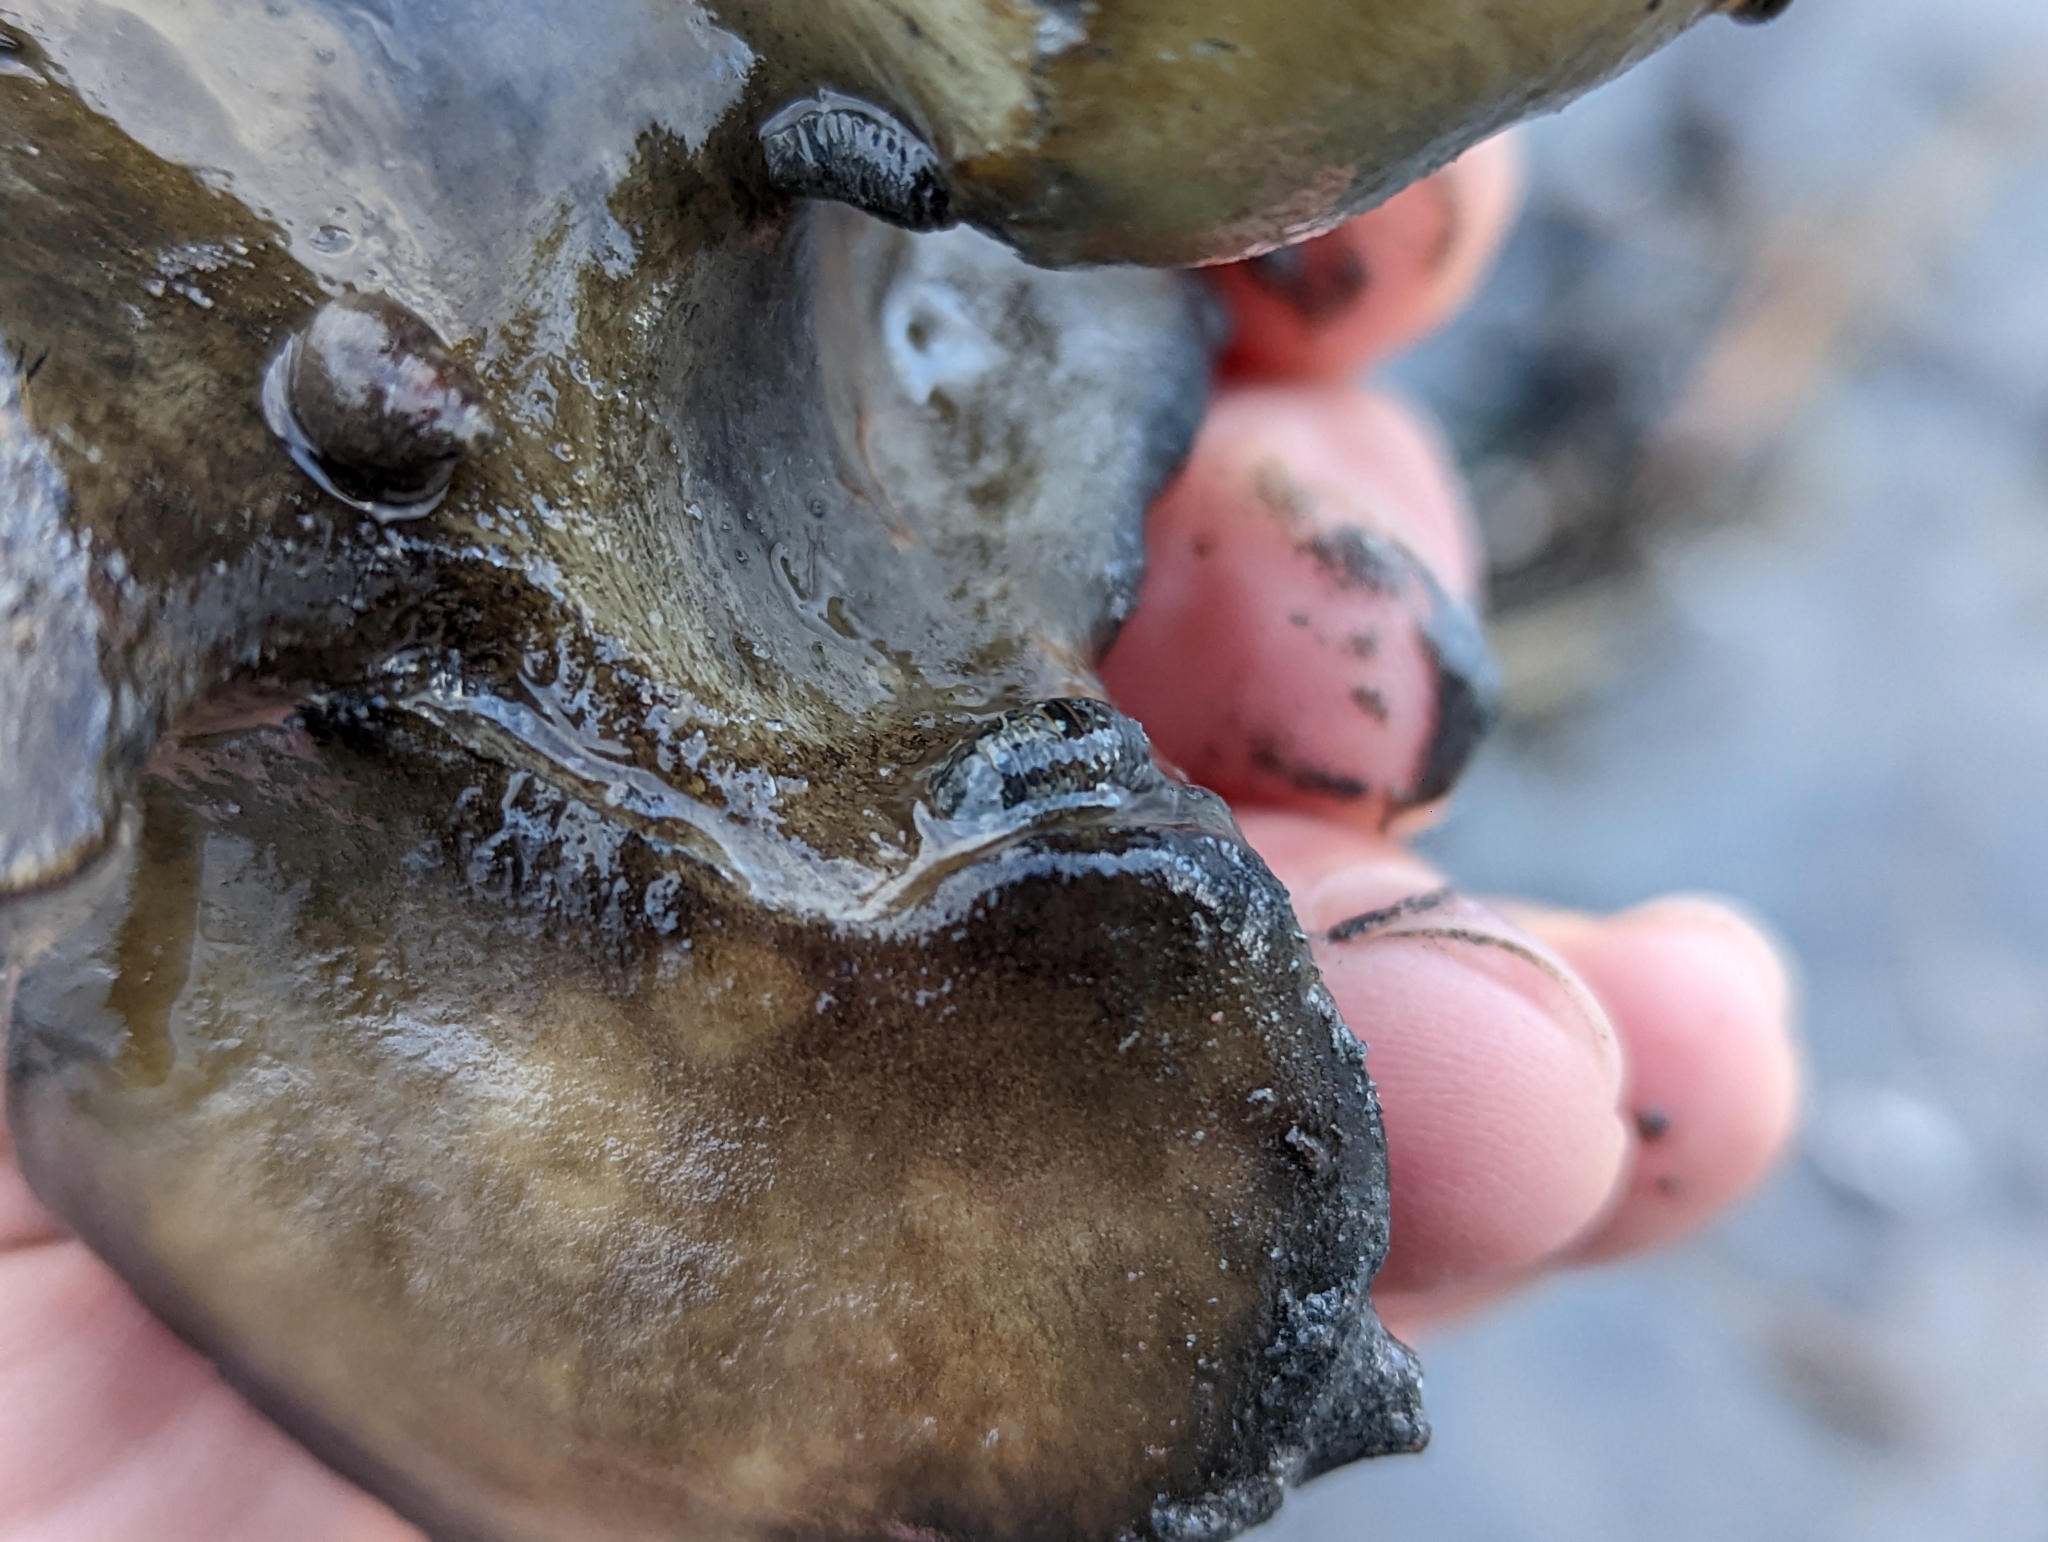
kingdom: Animalia
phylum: Arthropoda
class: Malacostraca
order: Isopoda
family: Sphaeromatidae
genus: Gnorimosphaeroma
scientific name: Gnorimosphaeroma oregonense
